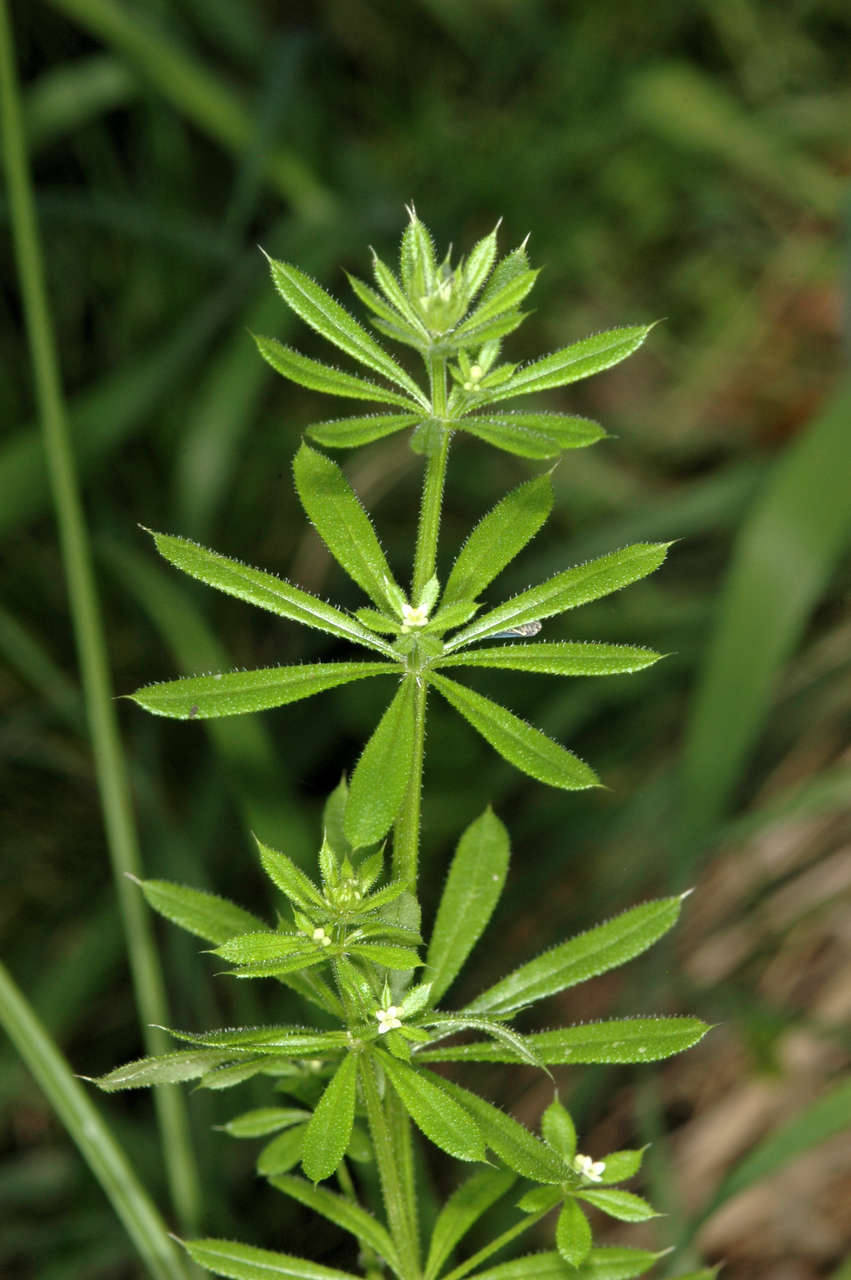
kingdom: Plantae
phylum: Tracheophyta
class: Magnoliopsida
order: Gentianales
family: Rubiaceae
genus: Galium
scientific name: Galium aparine
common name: Cleavers
